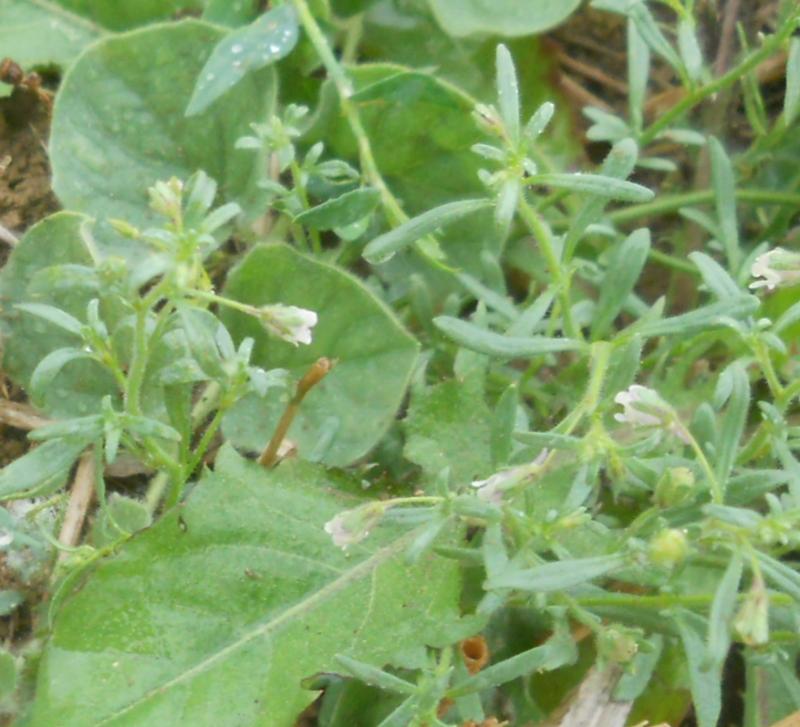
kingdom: Plantae
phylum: Tracheophyta
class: Magnoliopsida
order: Lamiales
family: Plantaginaceae
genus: Chaenorhinum
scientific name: Chaenorhinum minus
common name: Dwarf snapdragon
